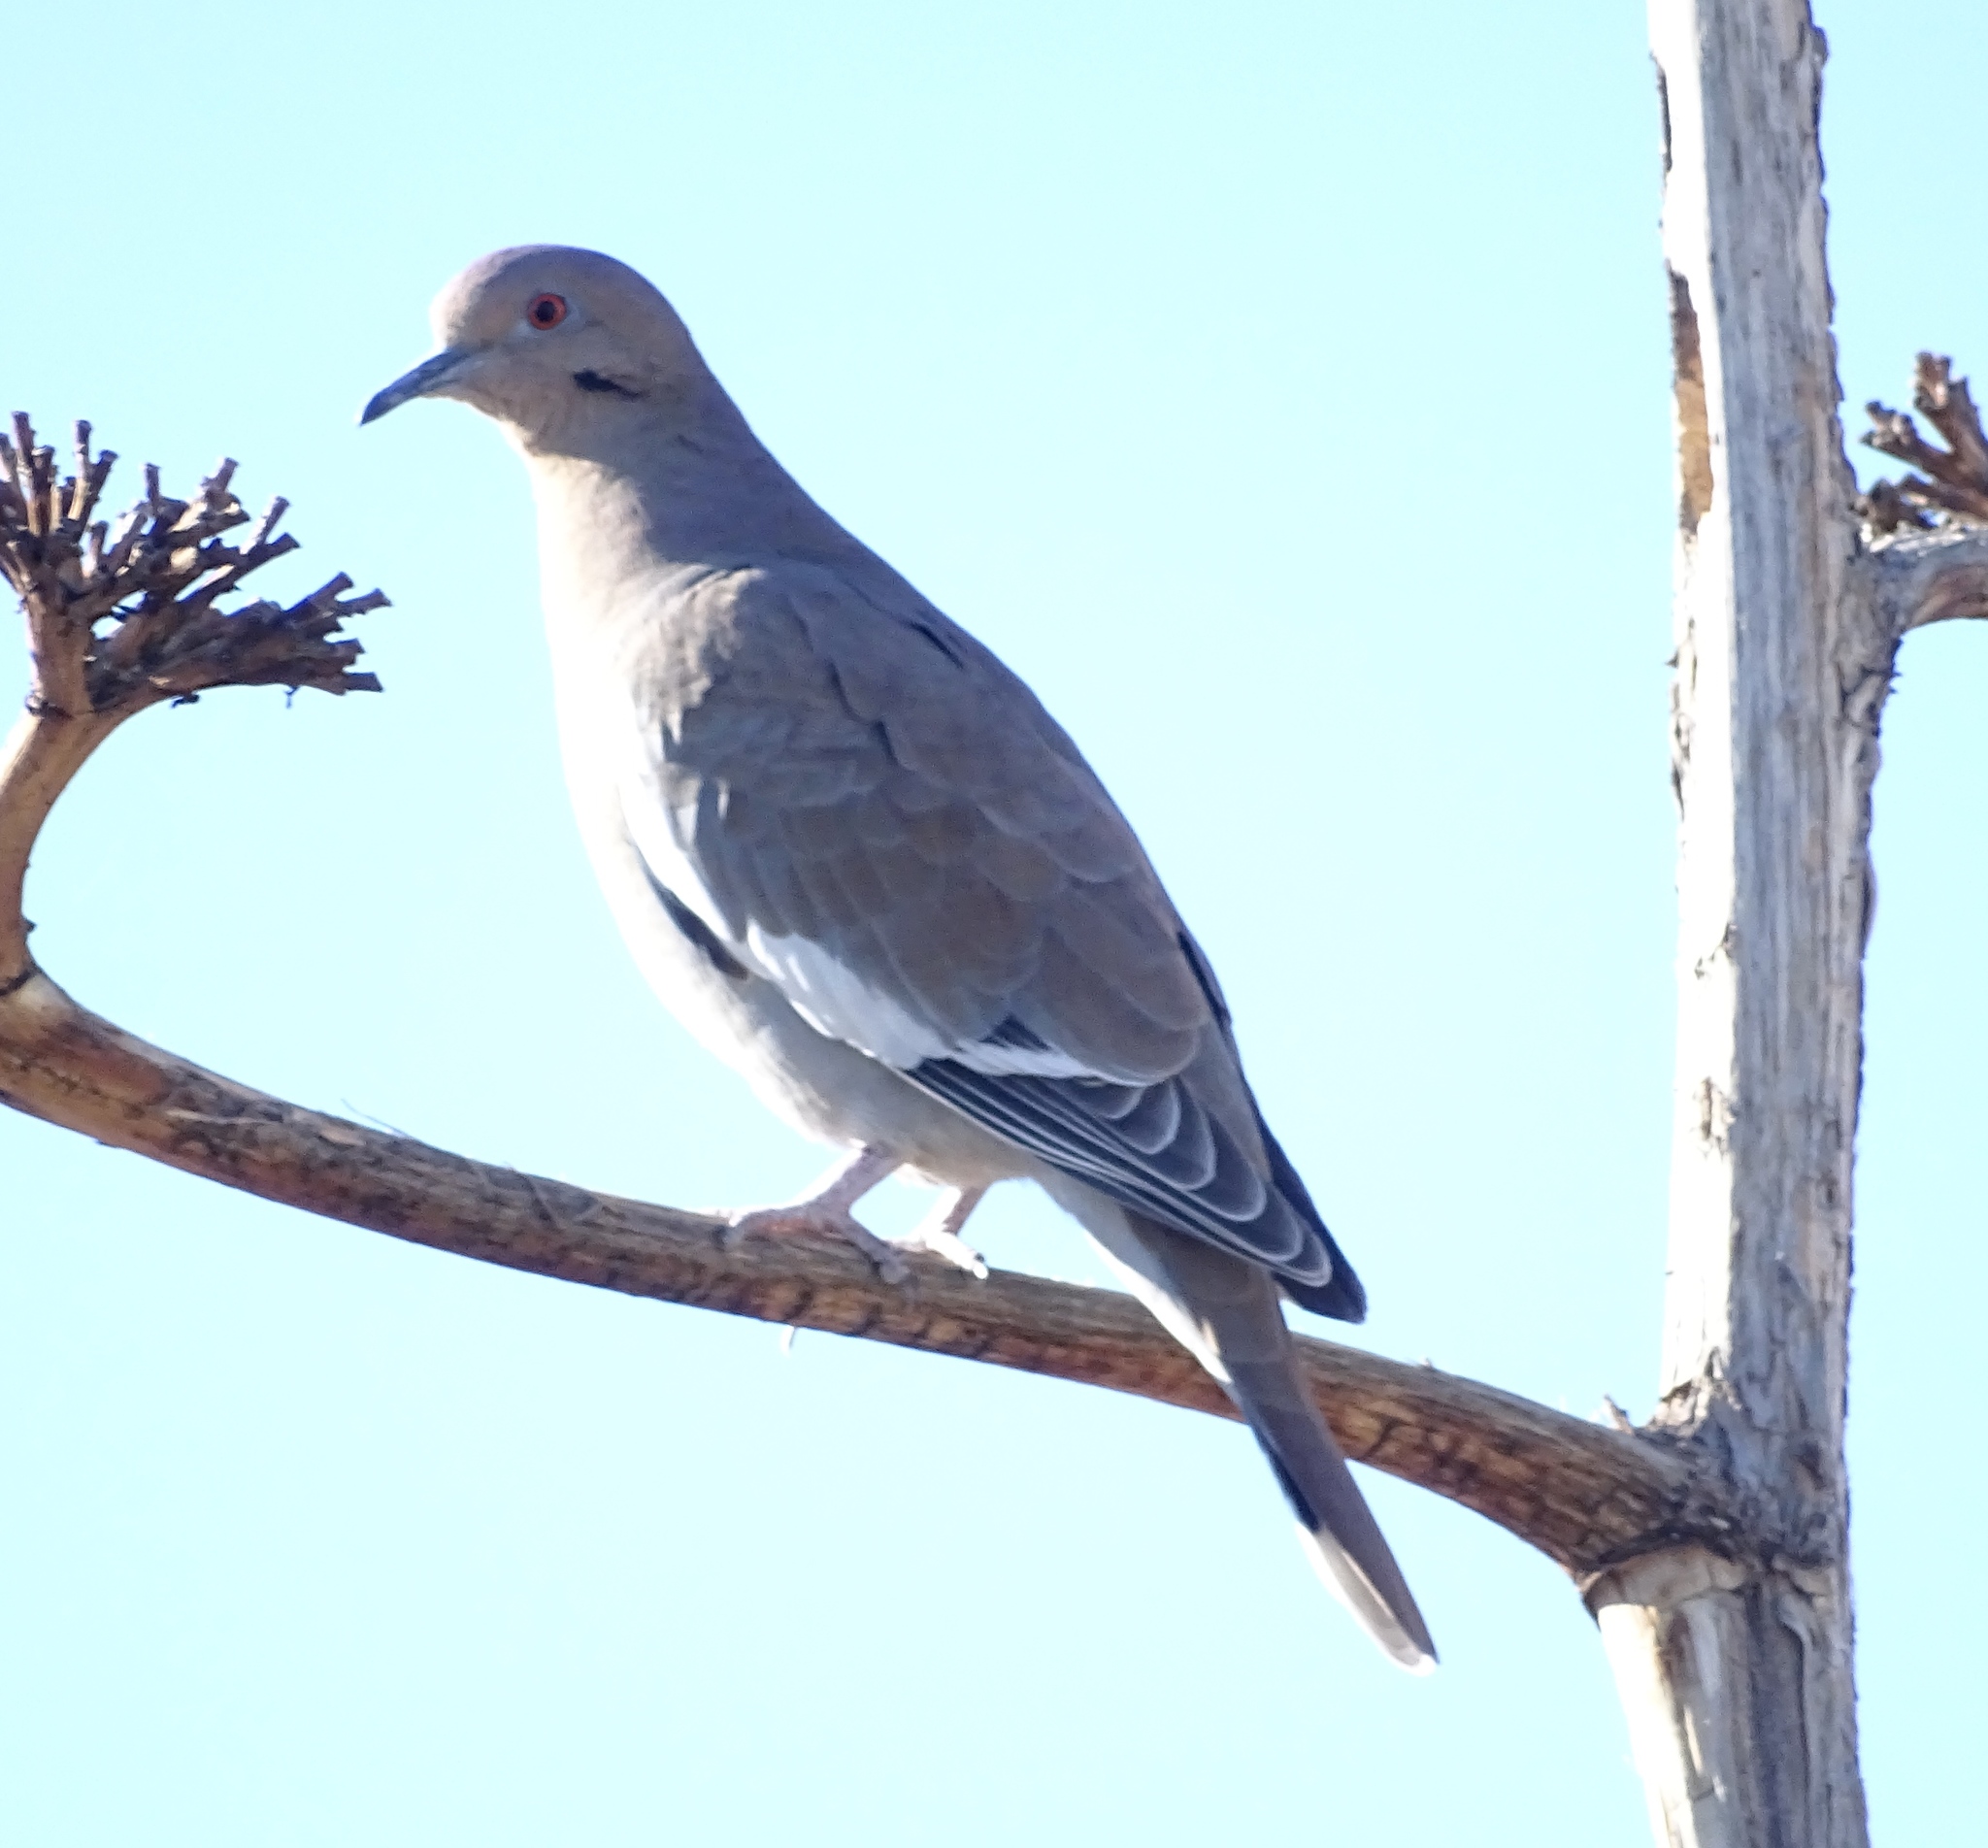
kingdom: Animalia
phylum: Chordata
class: Aves
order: Columbiformes
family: Columbidae
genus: Zenaida
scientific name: Zenaida asiatica
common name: White-winged dove
